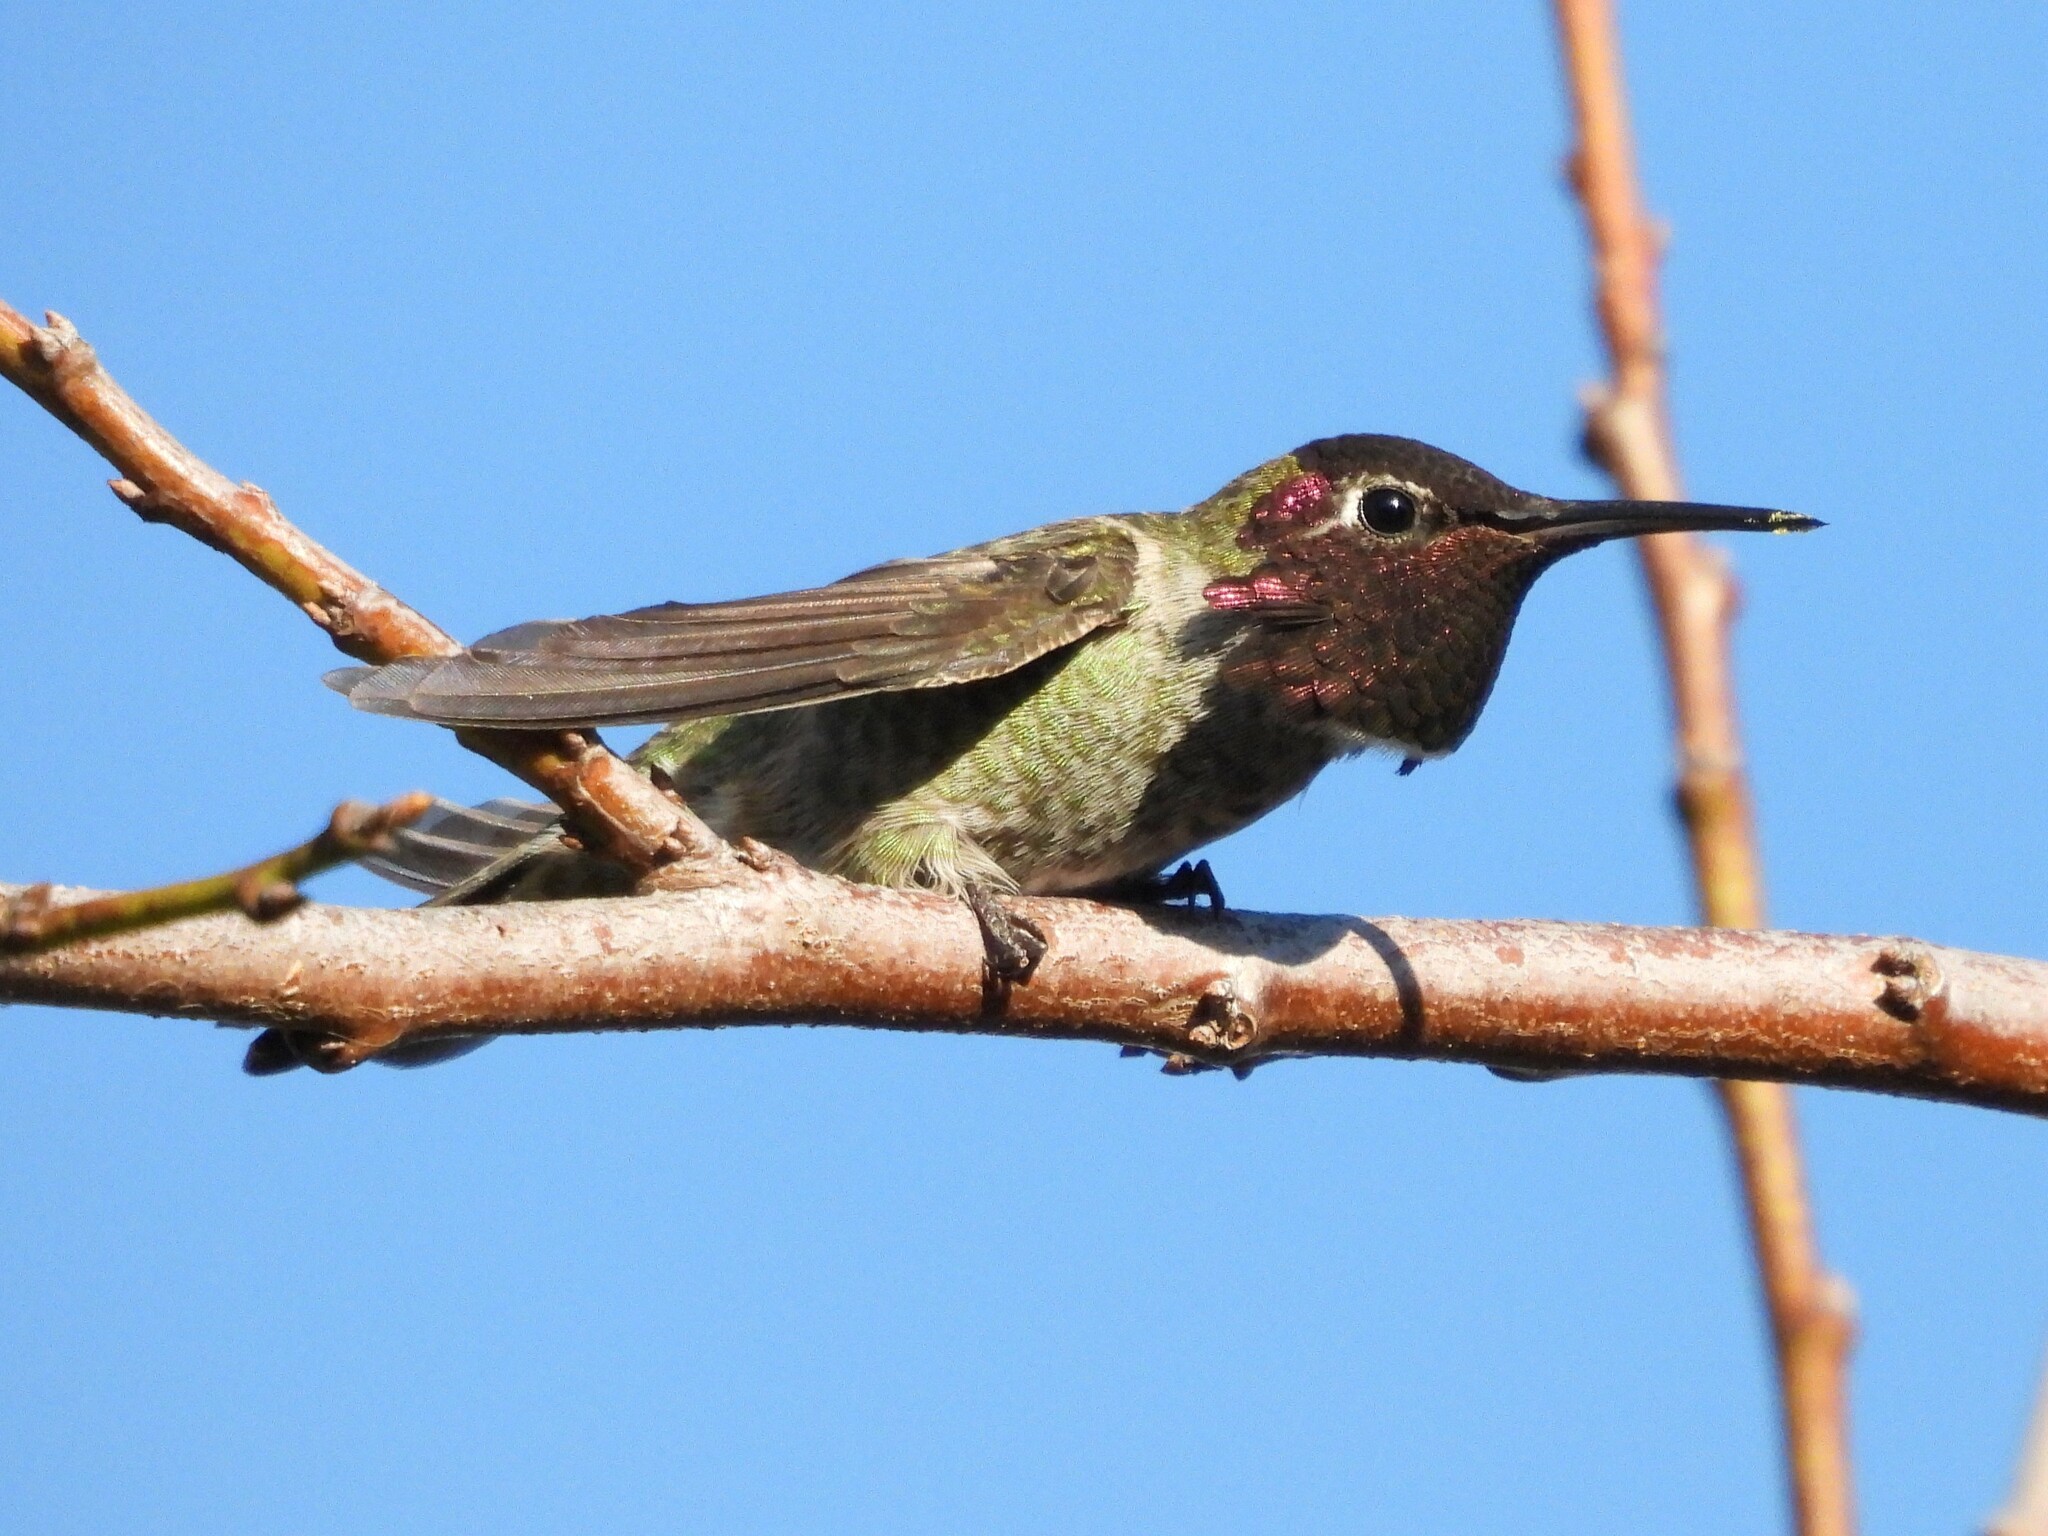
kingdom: Animalia
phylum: Chordata
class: Aves
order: Apodiformes
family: Trochilidae
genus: Calypte
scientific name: Calypte anna
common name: Anna's hummingbird
